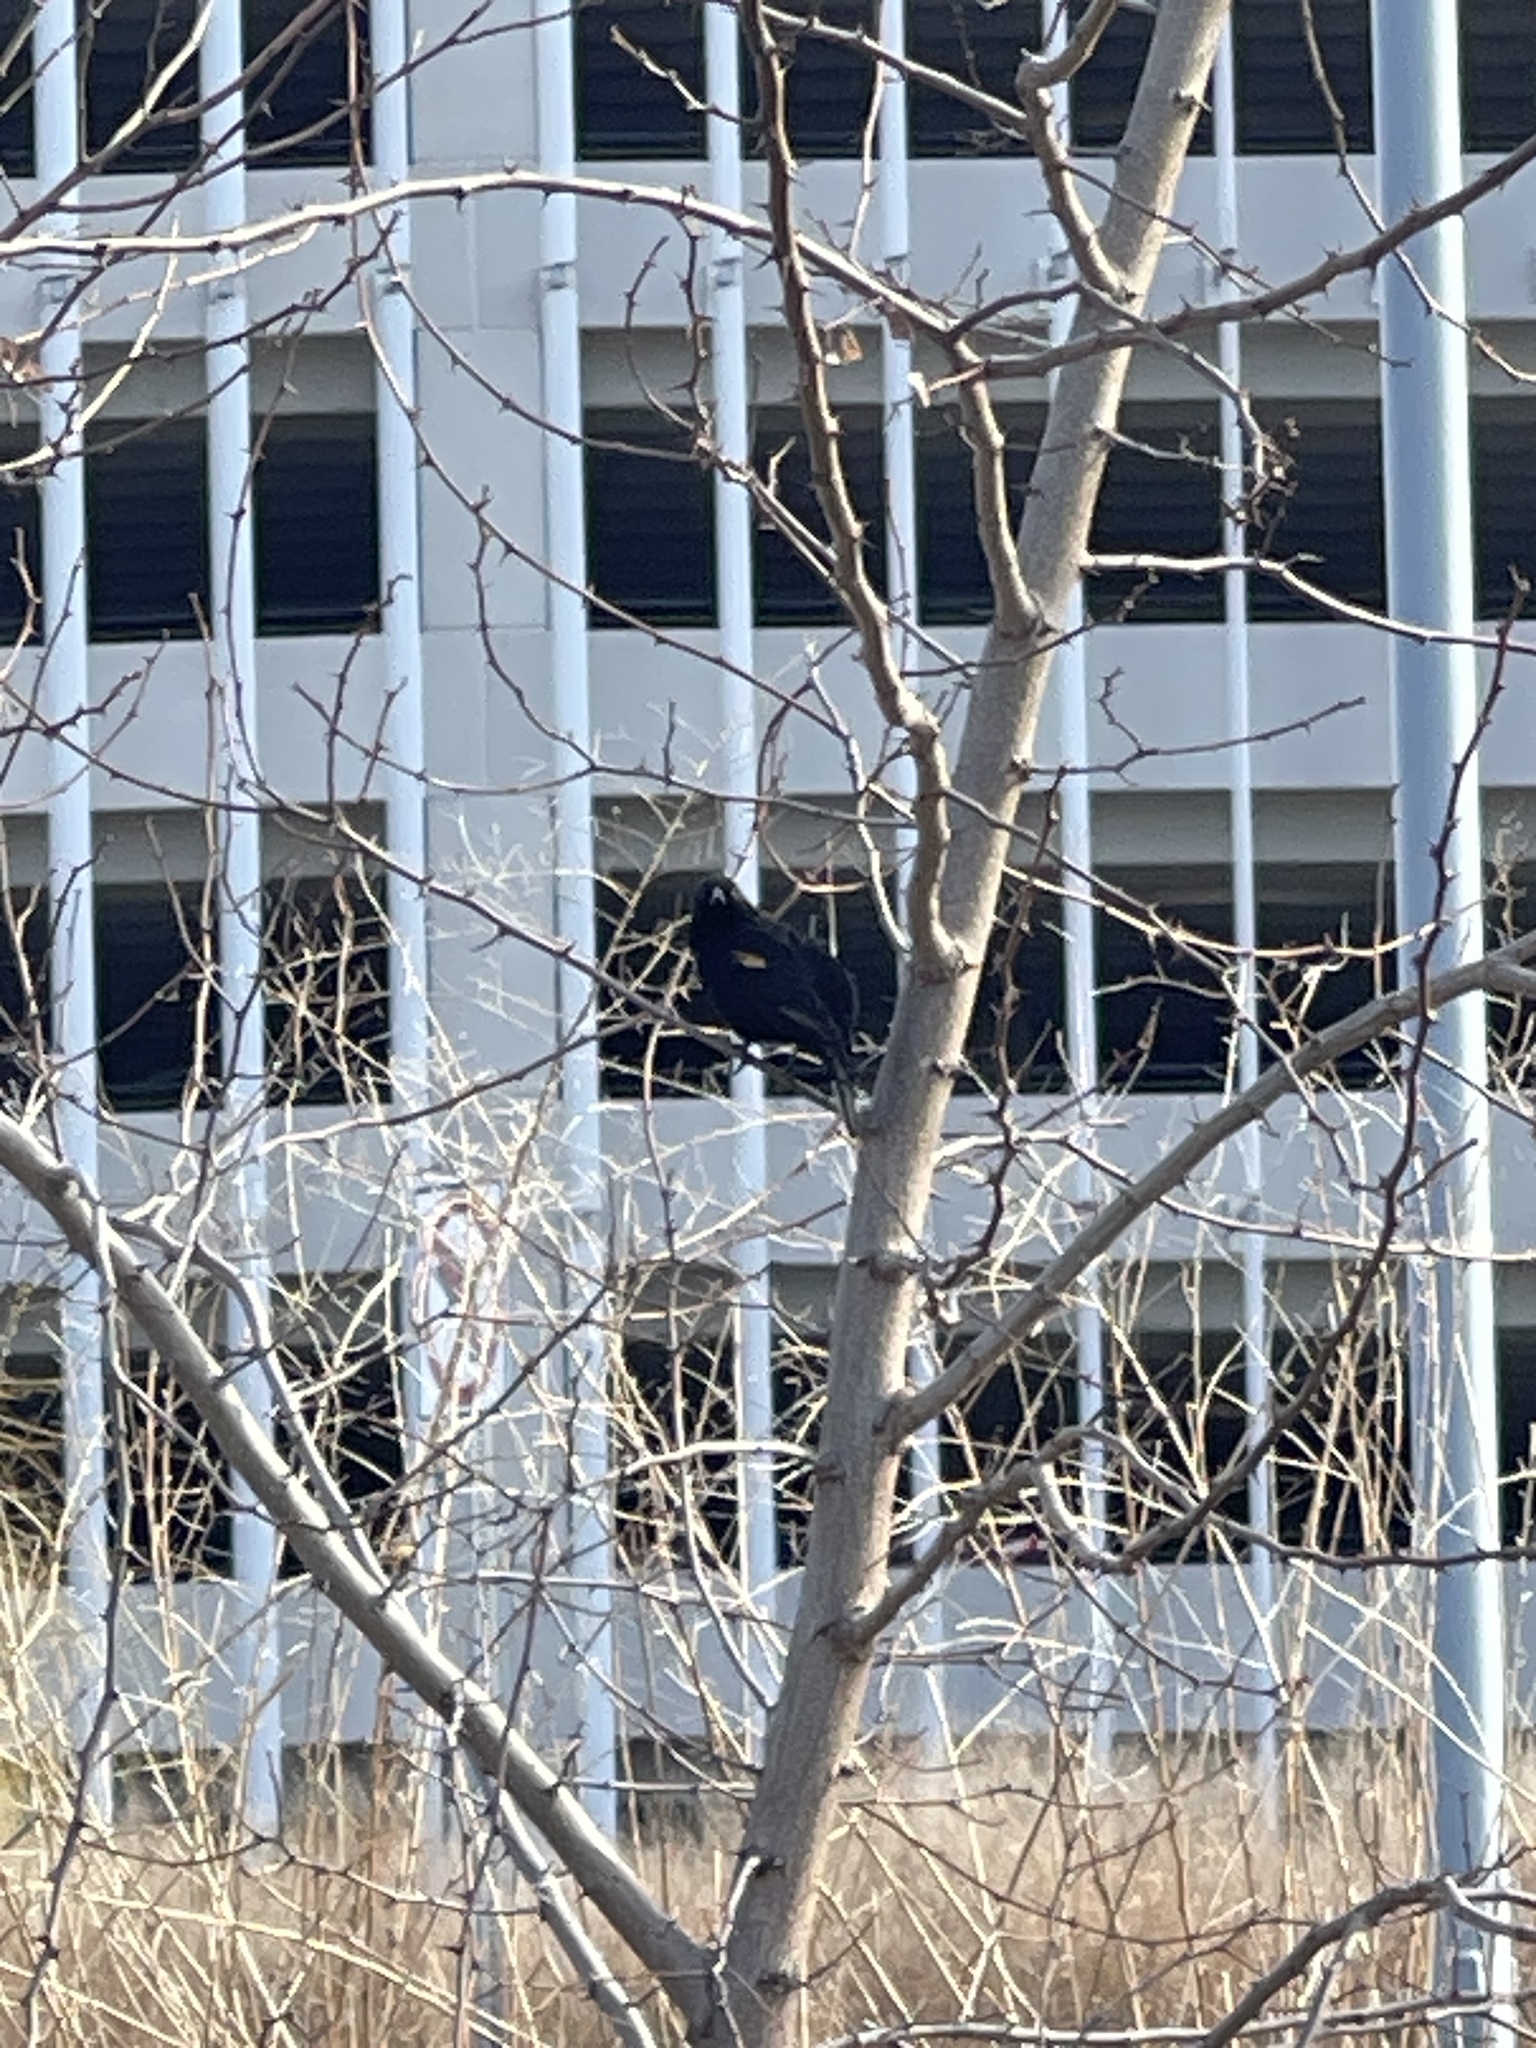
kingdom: Animalia
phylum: Chordata
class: Aves
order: Passeriformes
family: Icteridae
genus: Agelaius
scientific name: Agelaius phoeniceus
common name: Red-winged blackbird
